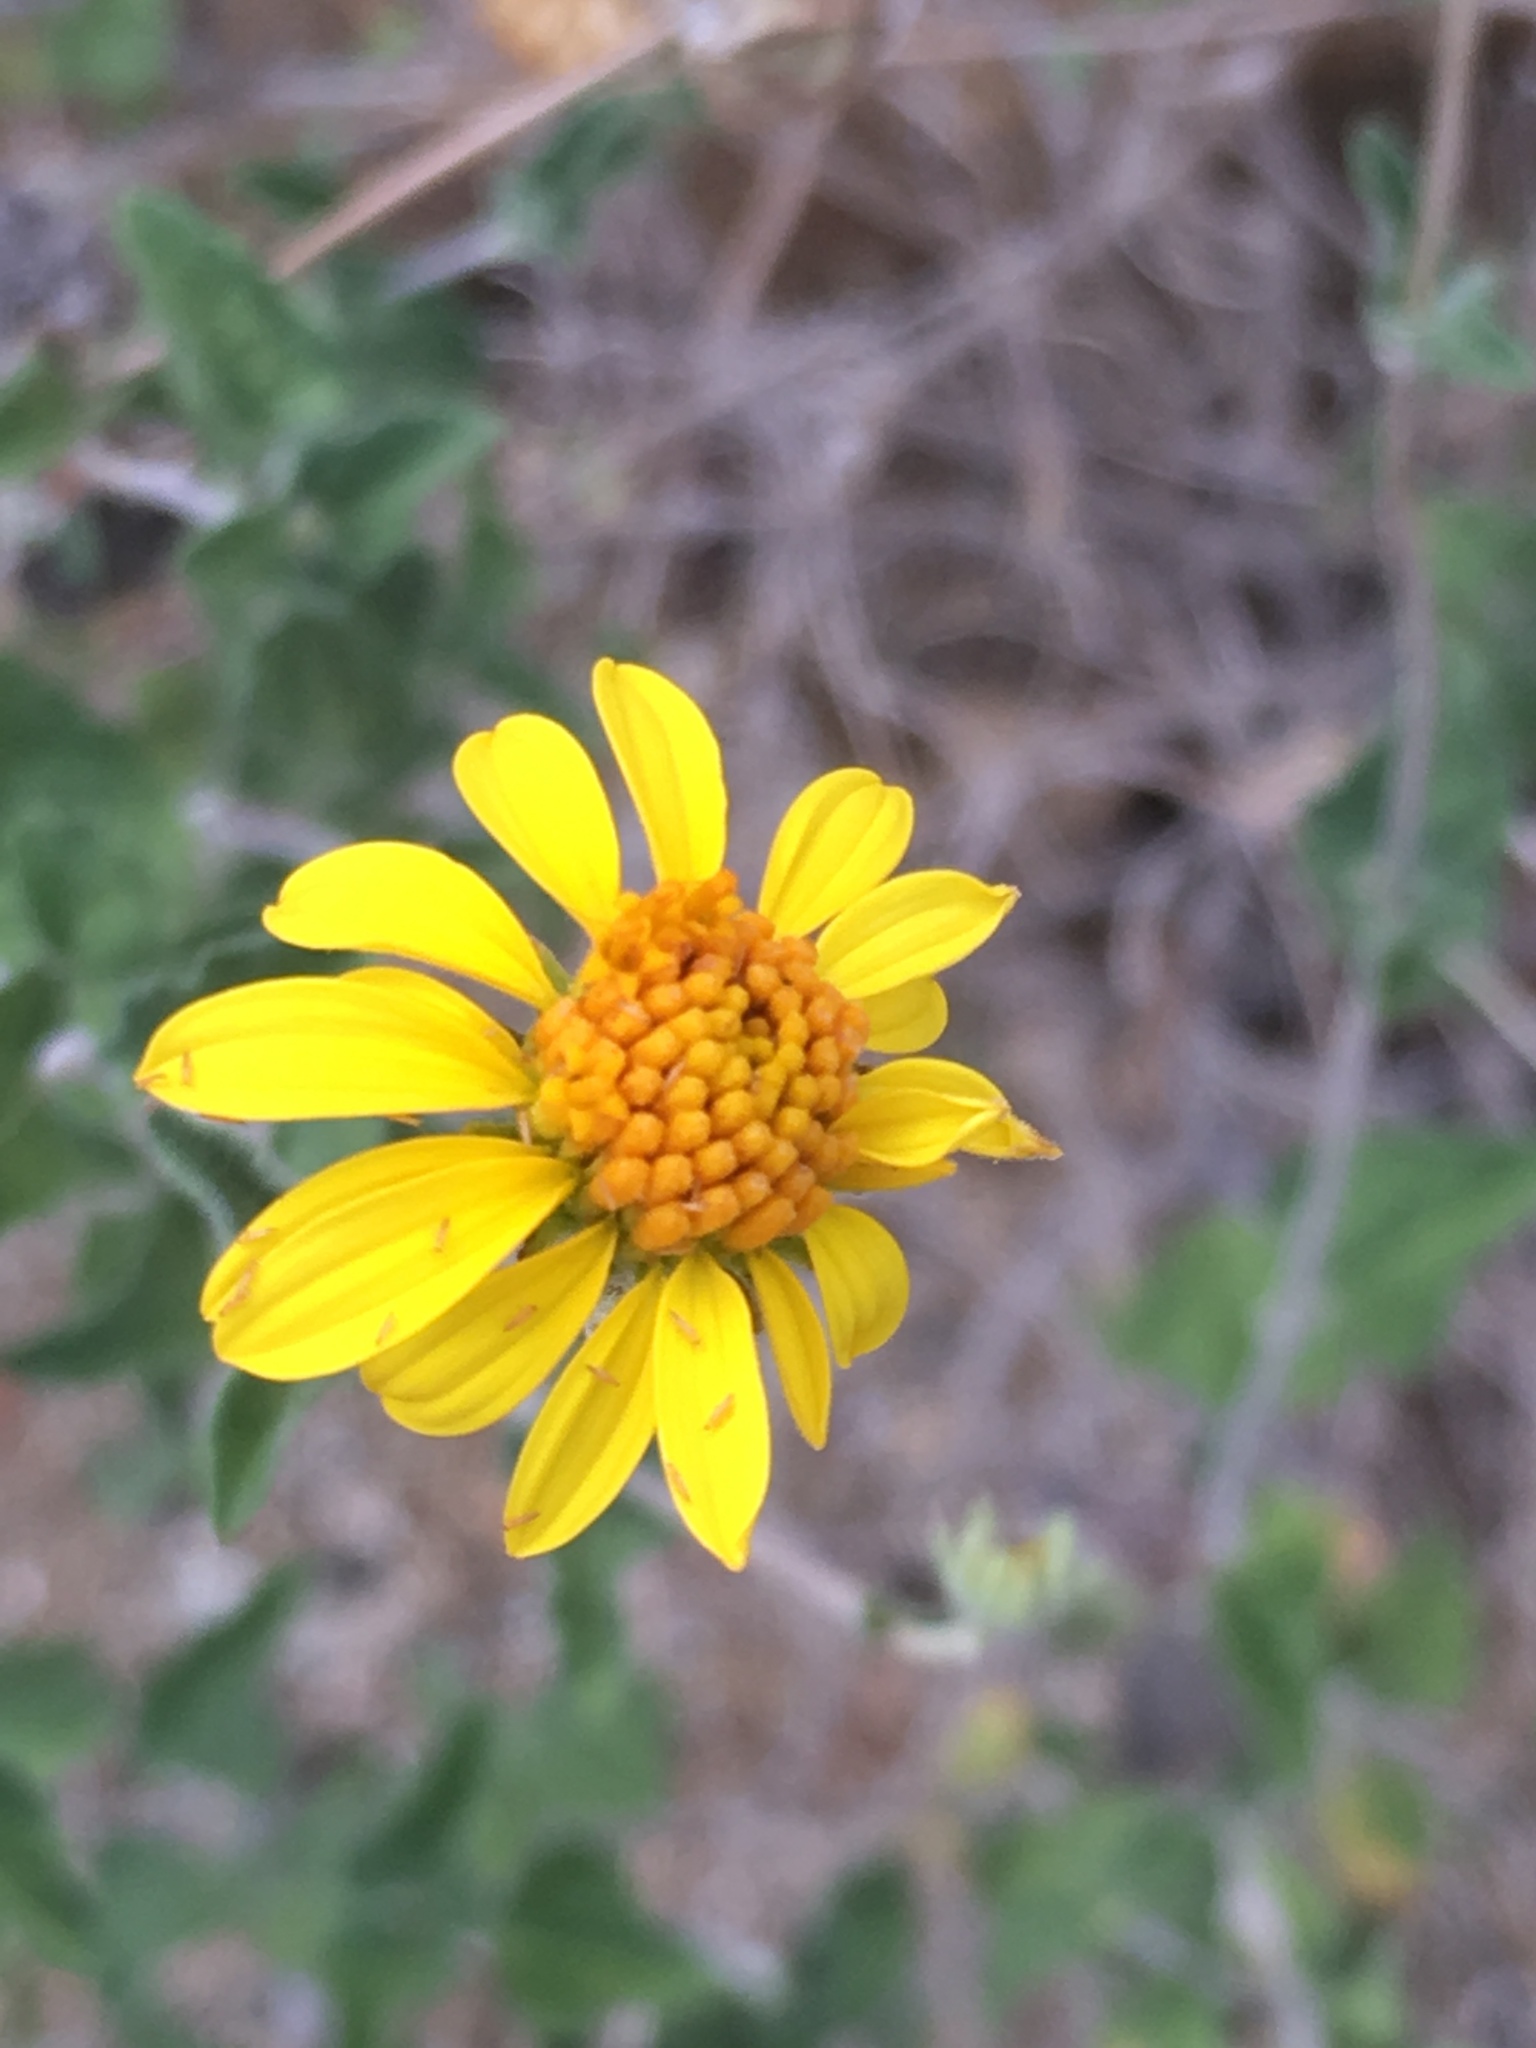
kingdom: Plantae
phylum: Tracheophyta
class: Magnoliopsida
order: Asterales
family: Asteraceae
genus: Bahiopsis
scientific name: Bahiopsis parishii
